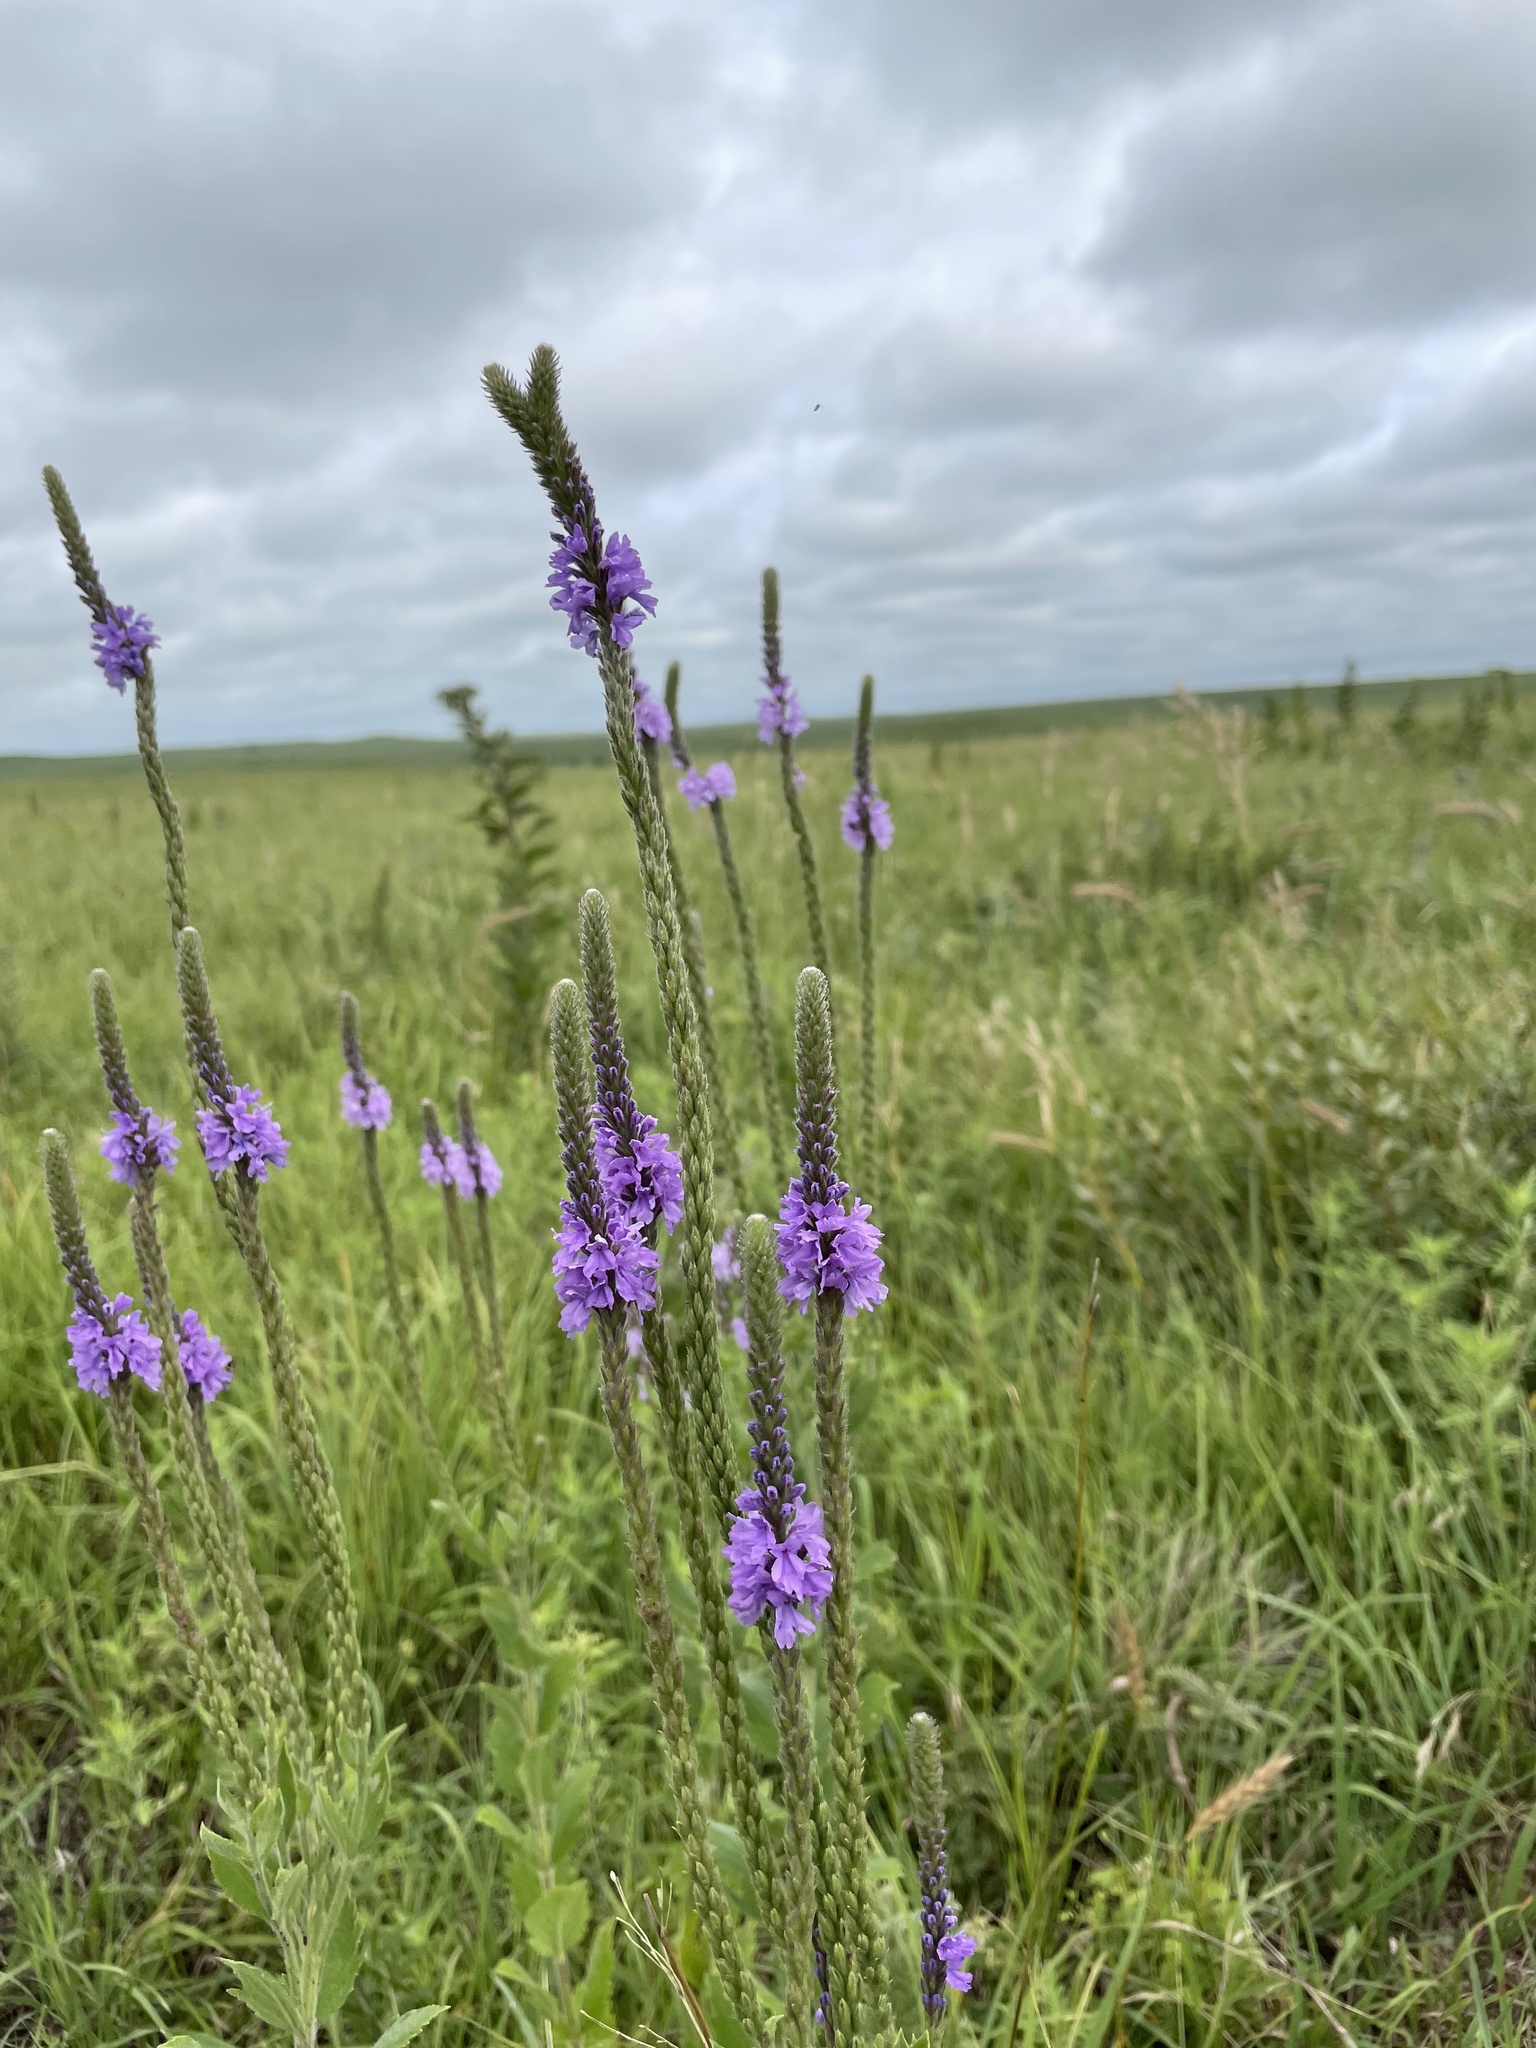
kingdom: Plantae
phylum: Tracheophyta
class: Magnoliopsida
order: Lamiales
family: Verbenaceae
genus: Verbena
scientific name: Verbena stricta
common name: Hoary vervain
